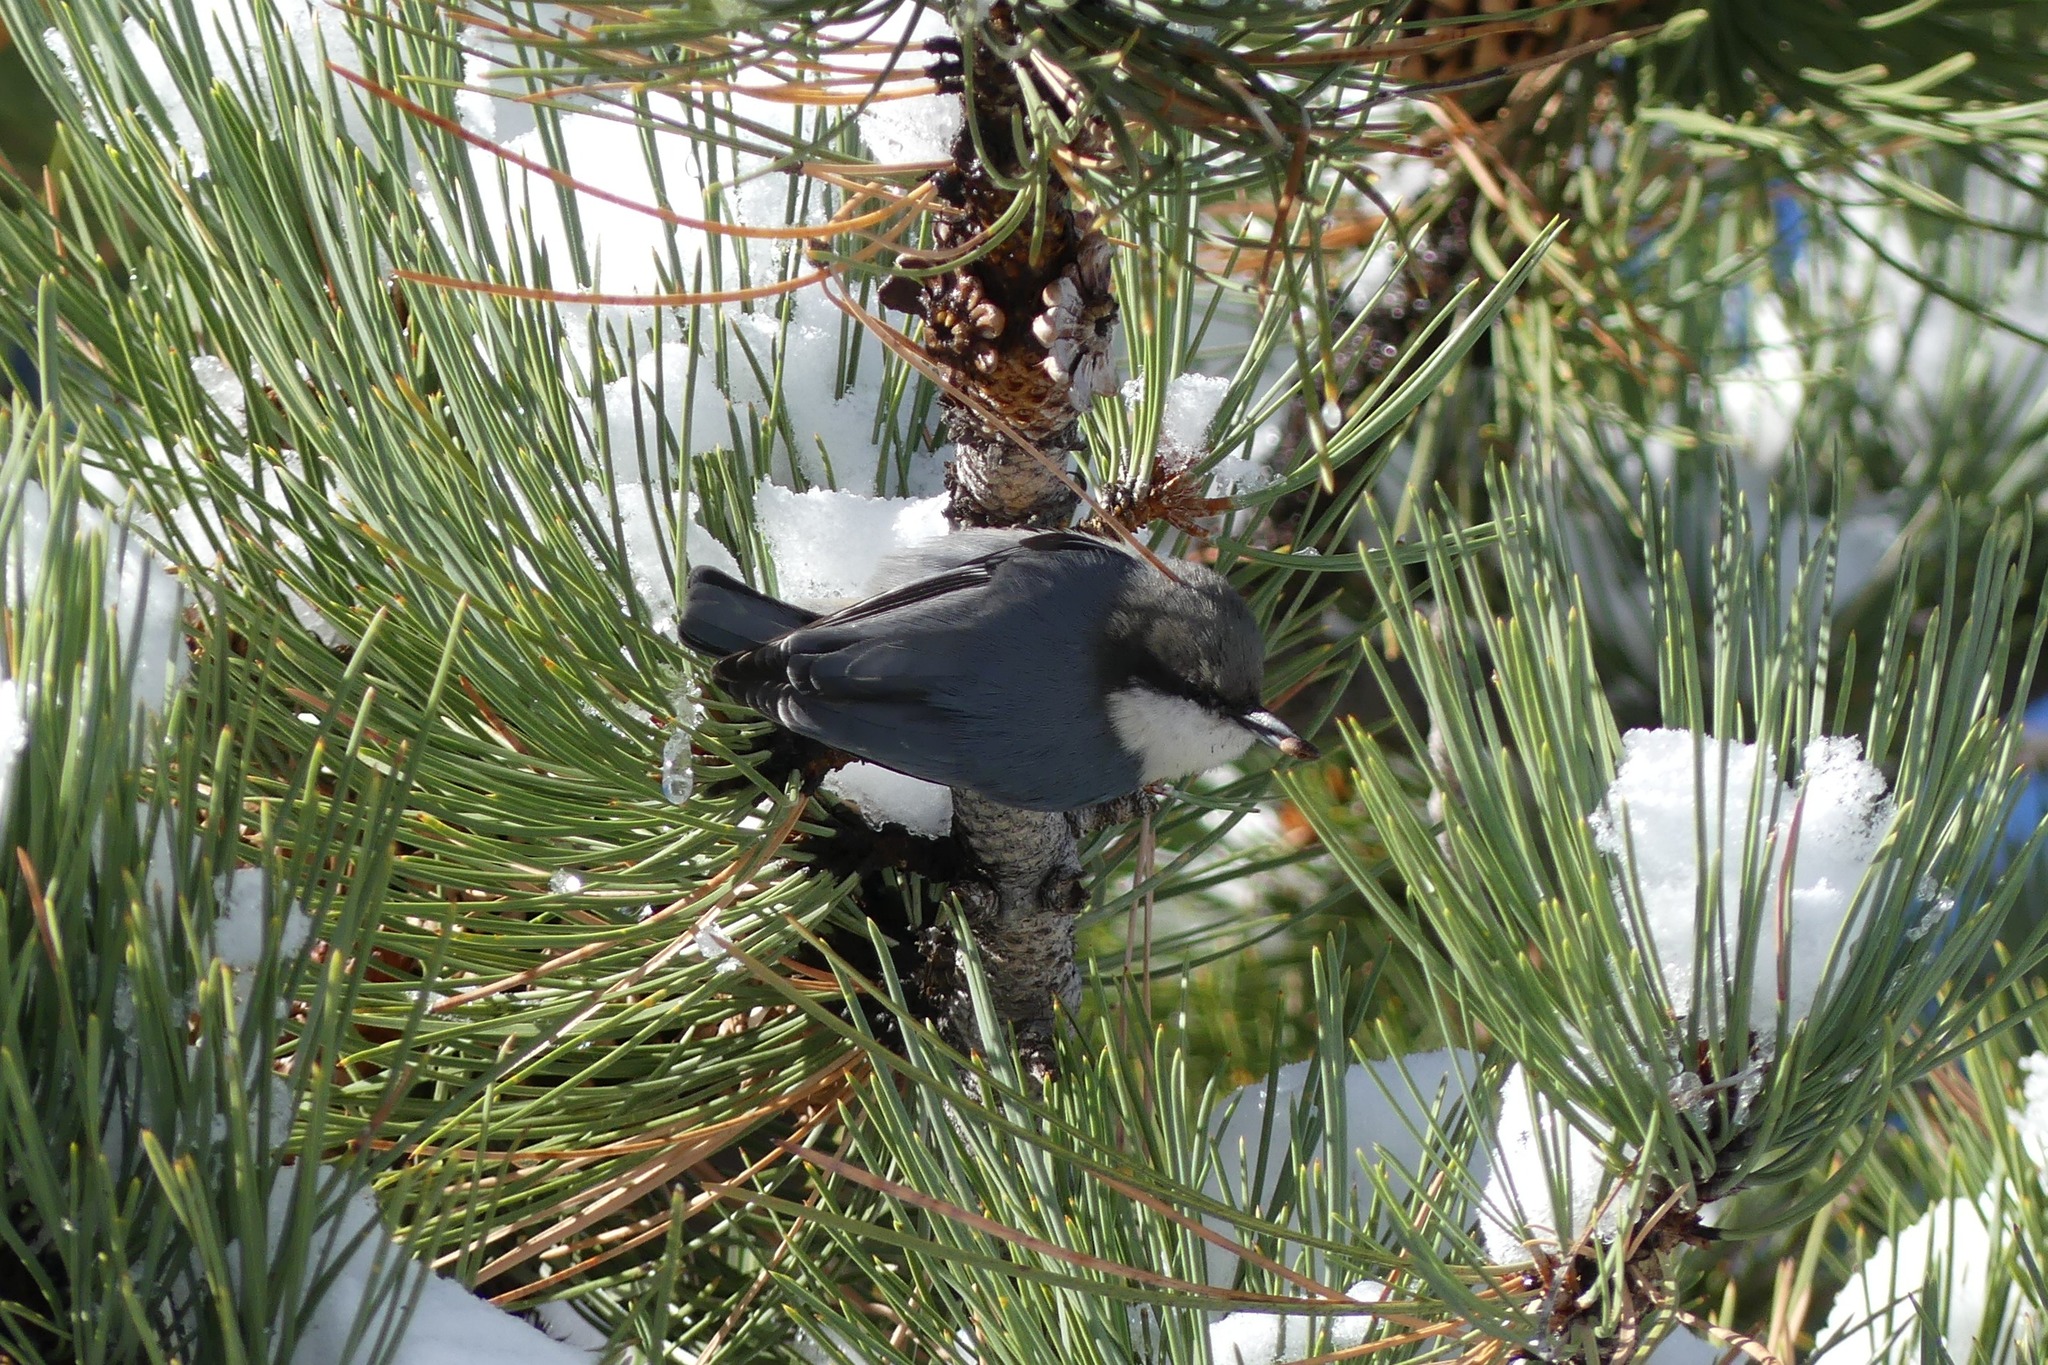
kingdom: Animalia
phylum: Chordata
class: Aves
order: Passeriformes
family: Sittidae
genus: Sitta
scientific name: Sitta pygmaea
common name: Pygmy nuthatch
